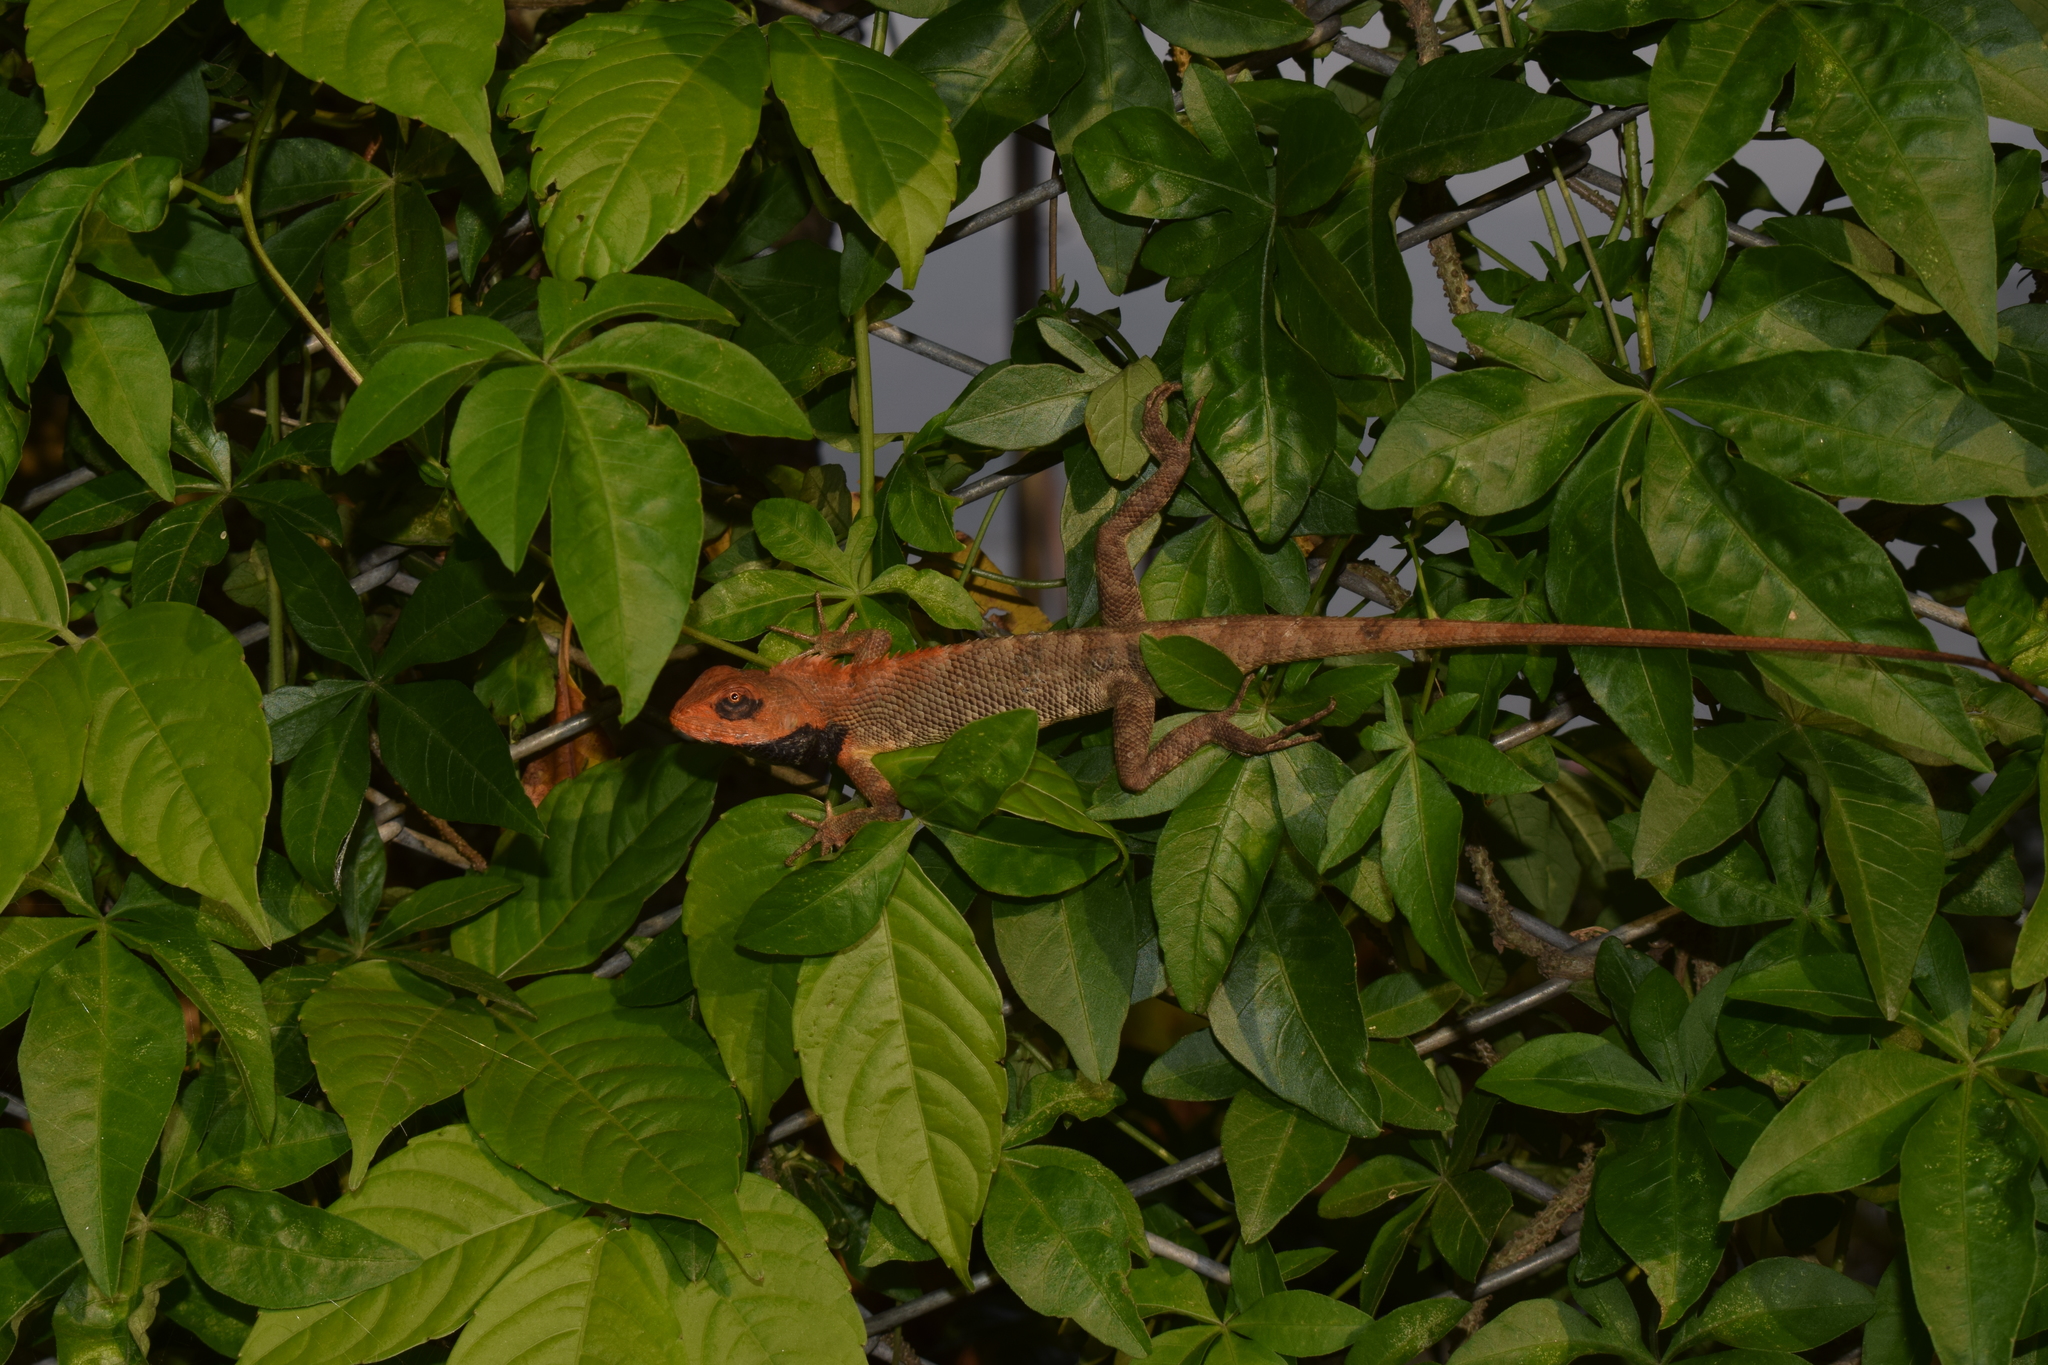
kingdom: Animalia
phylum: Chordata
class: Squamata
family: Agamidae
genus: Calotes
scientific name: Calotes versicolor
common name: Oriental garden lizard
